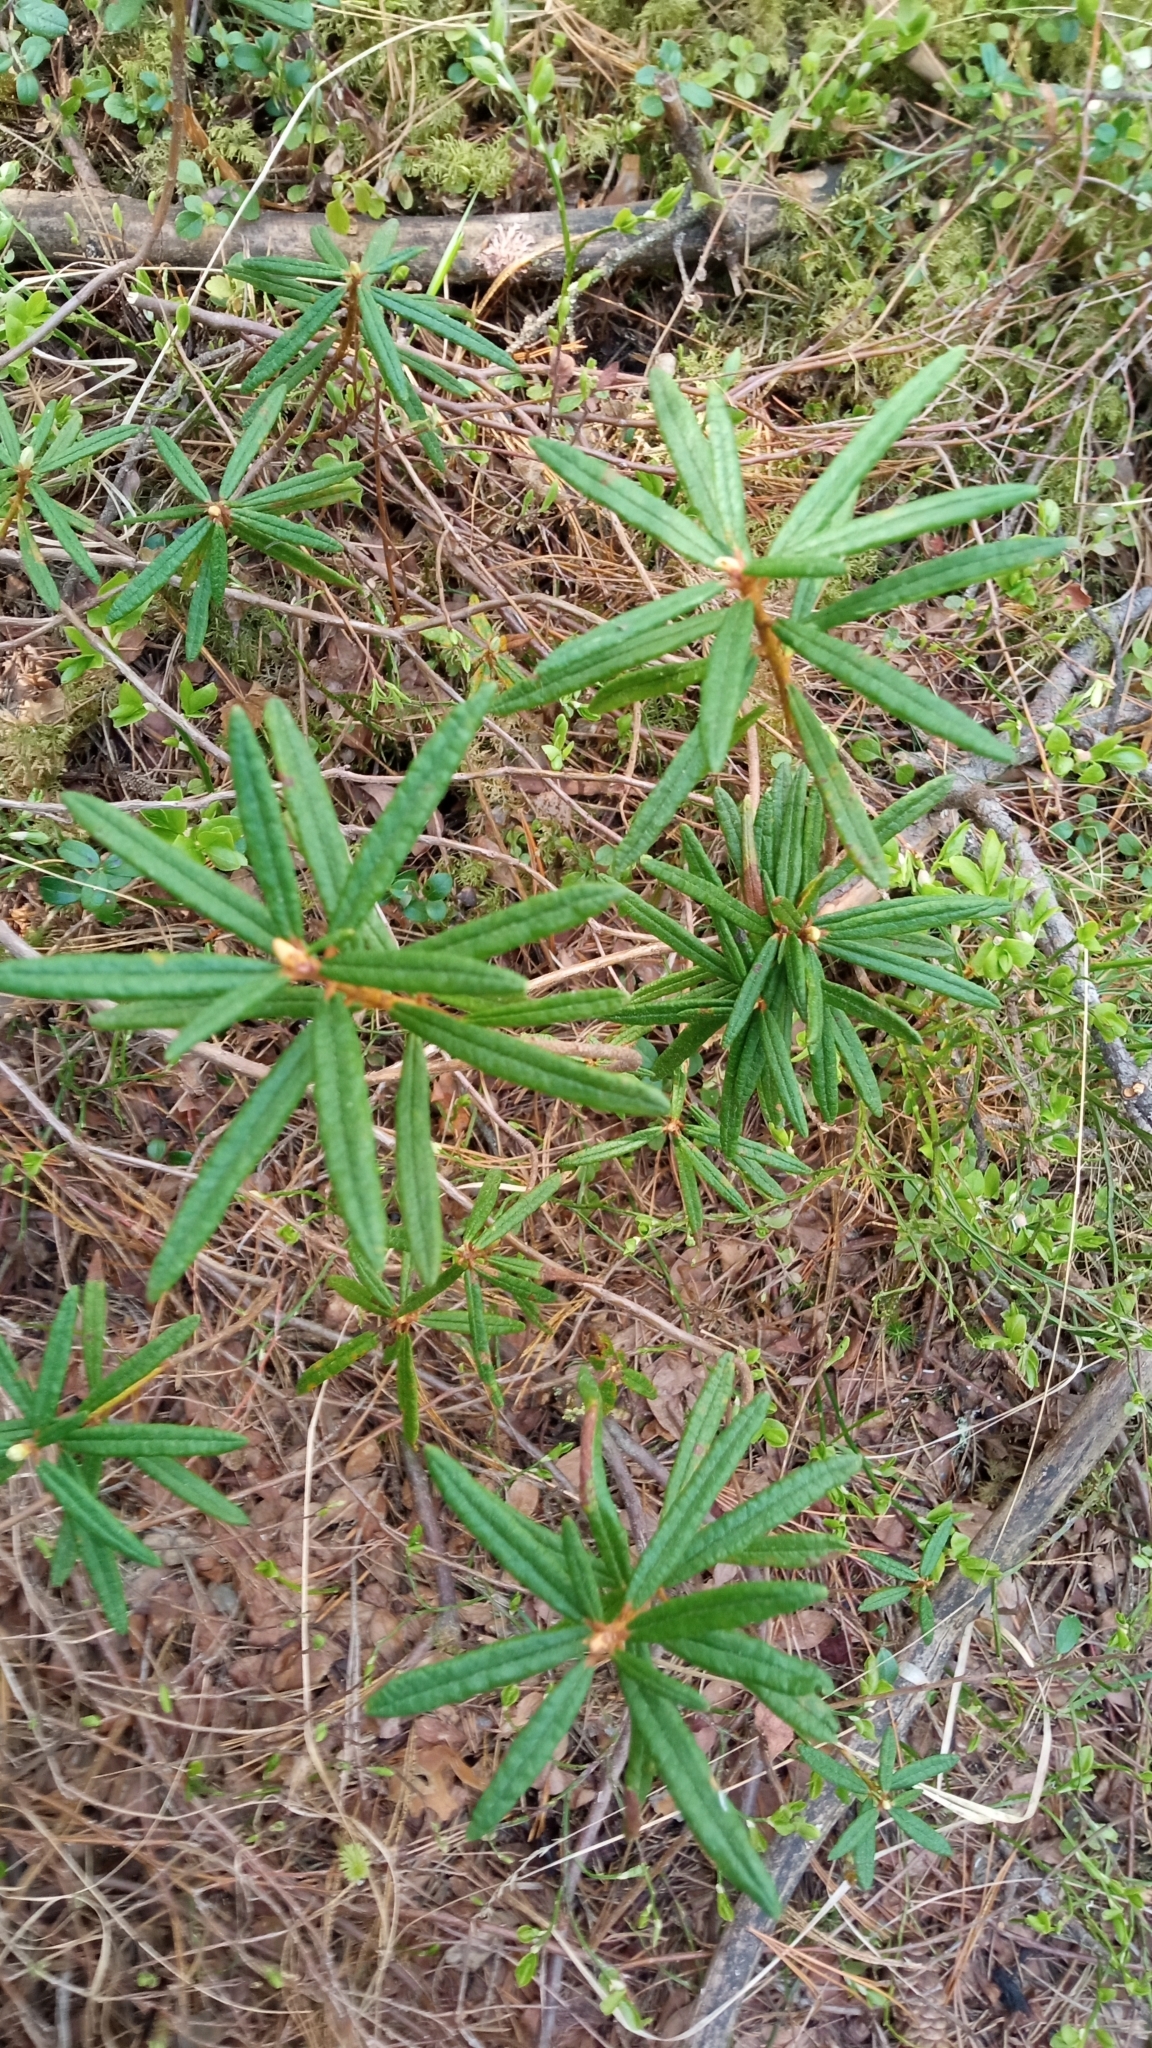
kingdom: Plantae
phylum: Tracheophyta
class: Magnoliopsida
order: Ericales
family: Ericaceae
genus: Rhododendron
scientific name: Rhododendron tomentosum
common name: Marsh labrador tea
